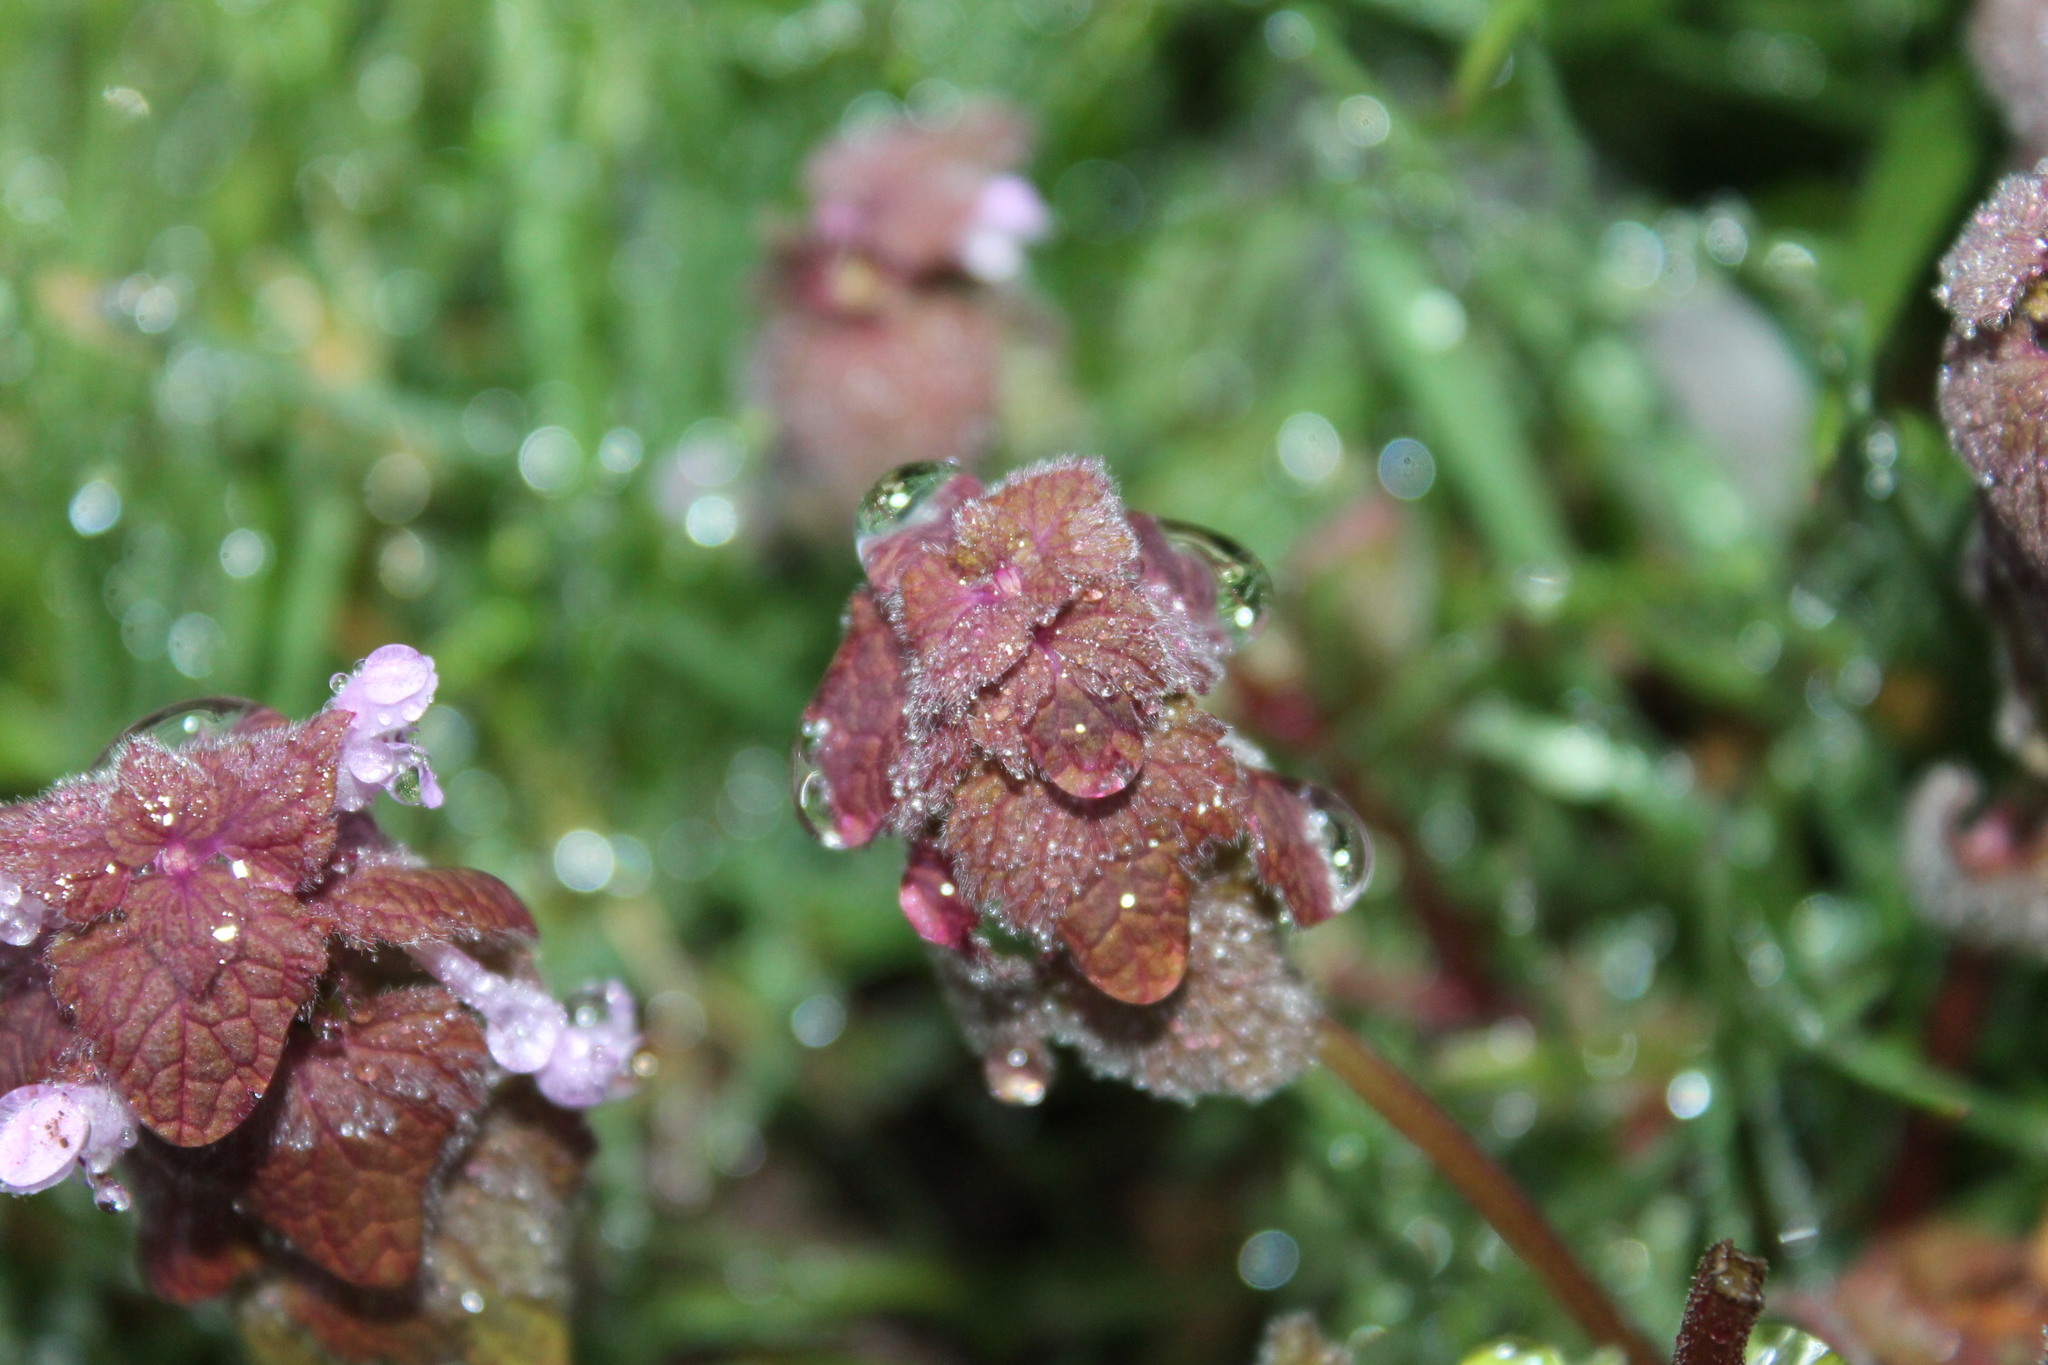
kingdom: Plantae
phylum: Tracheophyta
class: Magnoliopsida
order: Lamiales
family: Lamiaceae
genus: Lamium
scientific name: Lamium purpureum
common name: Red dead-nettle
